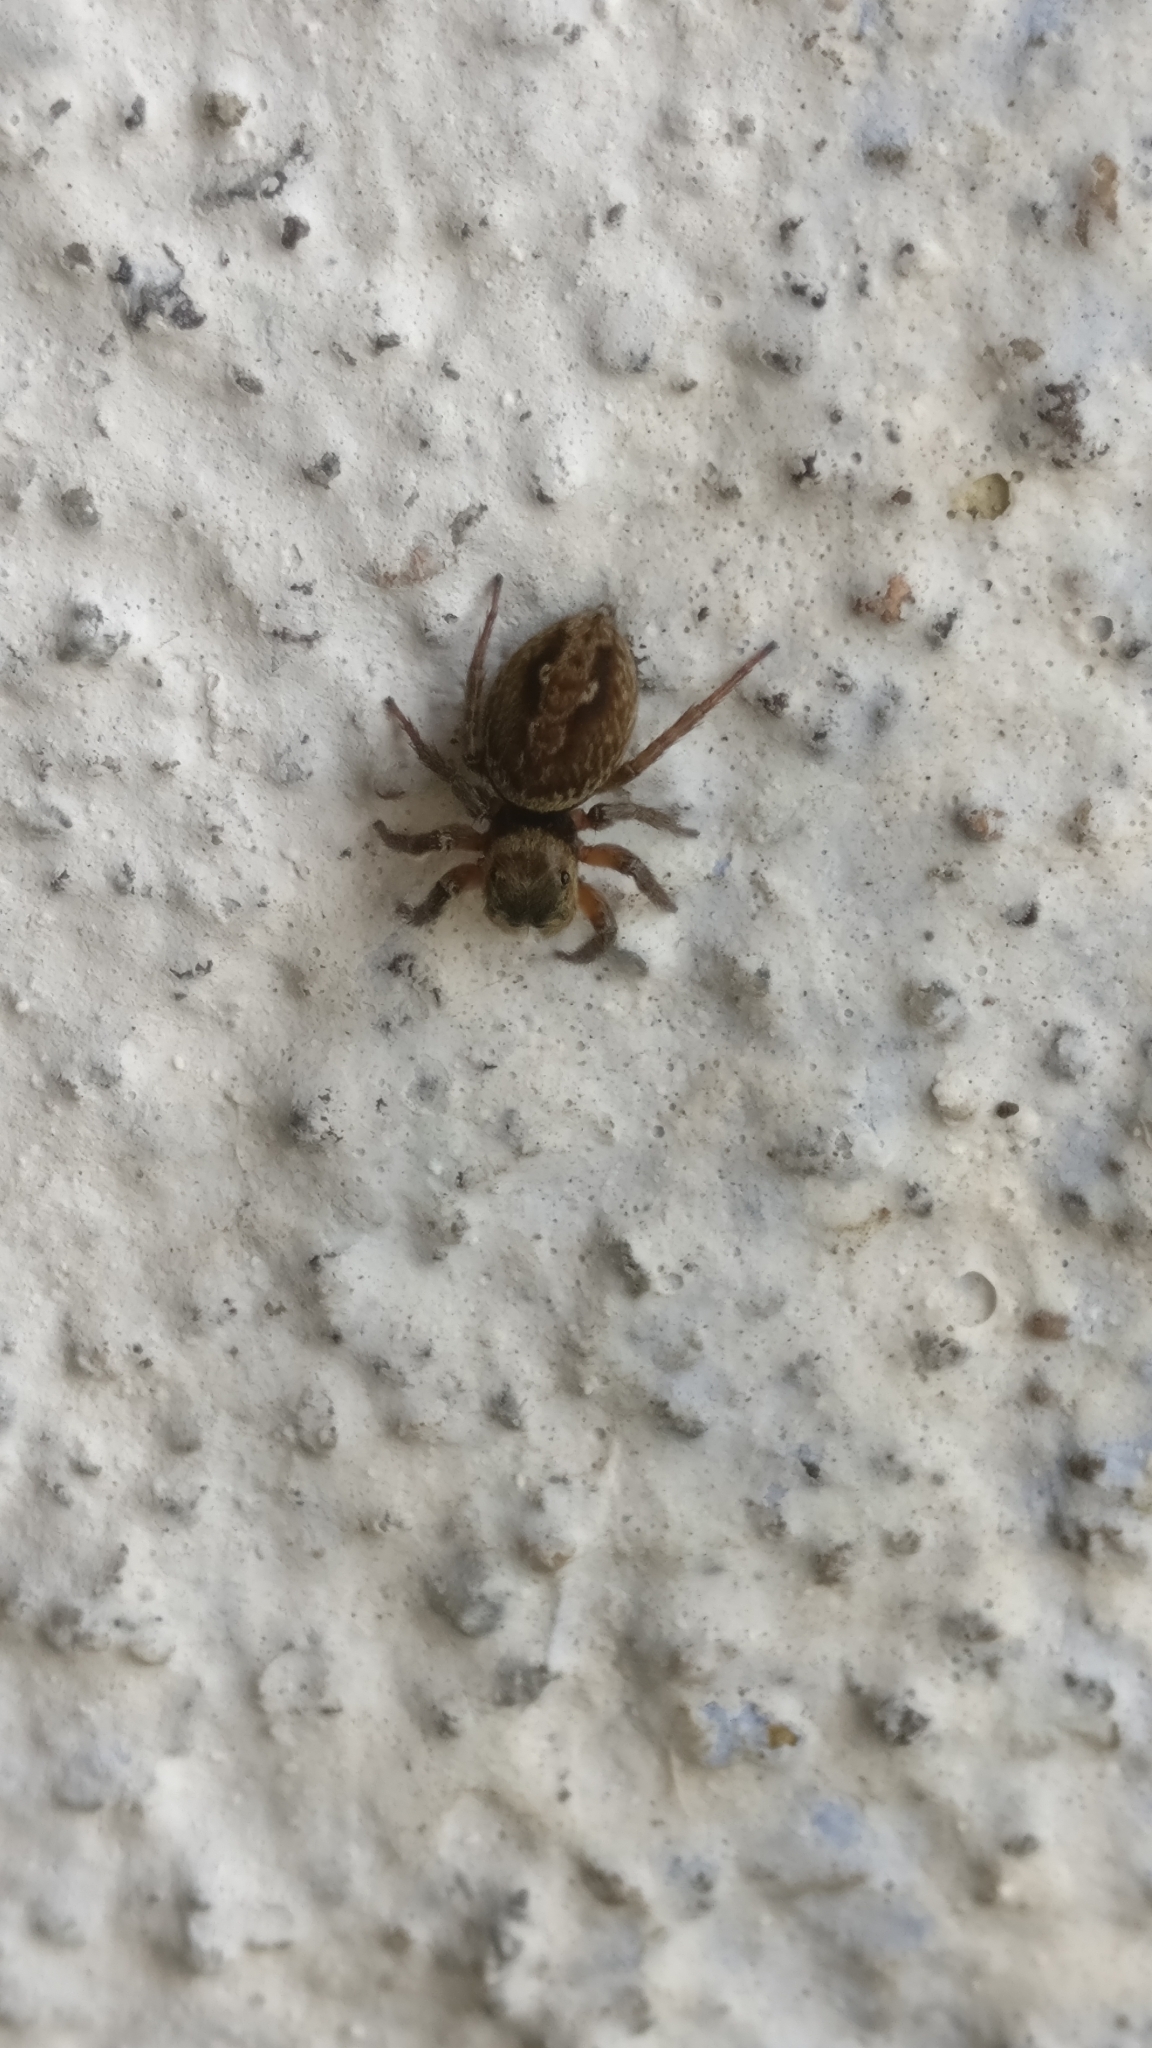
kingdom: Animalia
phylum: Arthropoda
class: Arachnida
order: Araneae
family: Salticidae
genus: Hasarius
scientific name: Hasarius adansoni
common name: Jumping spider
